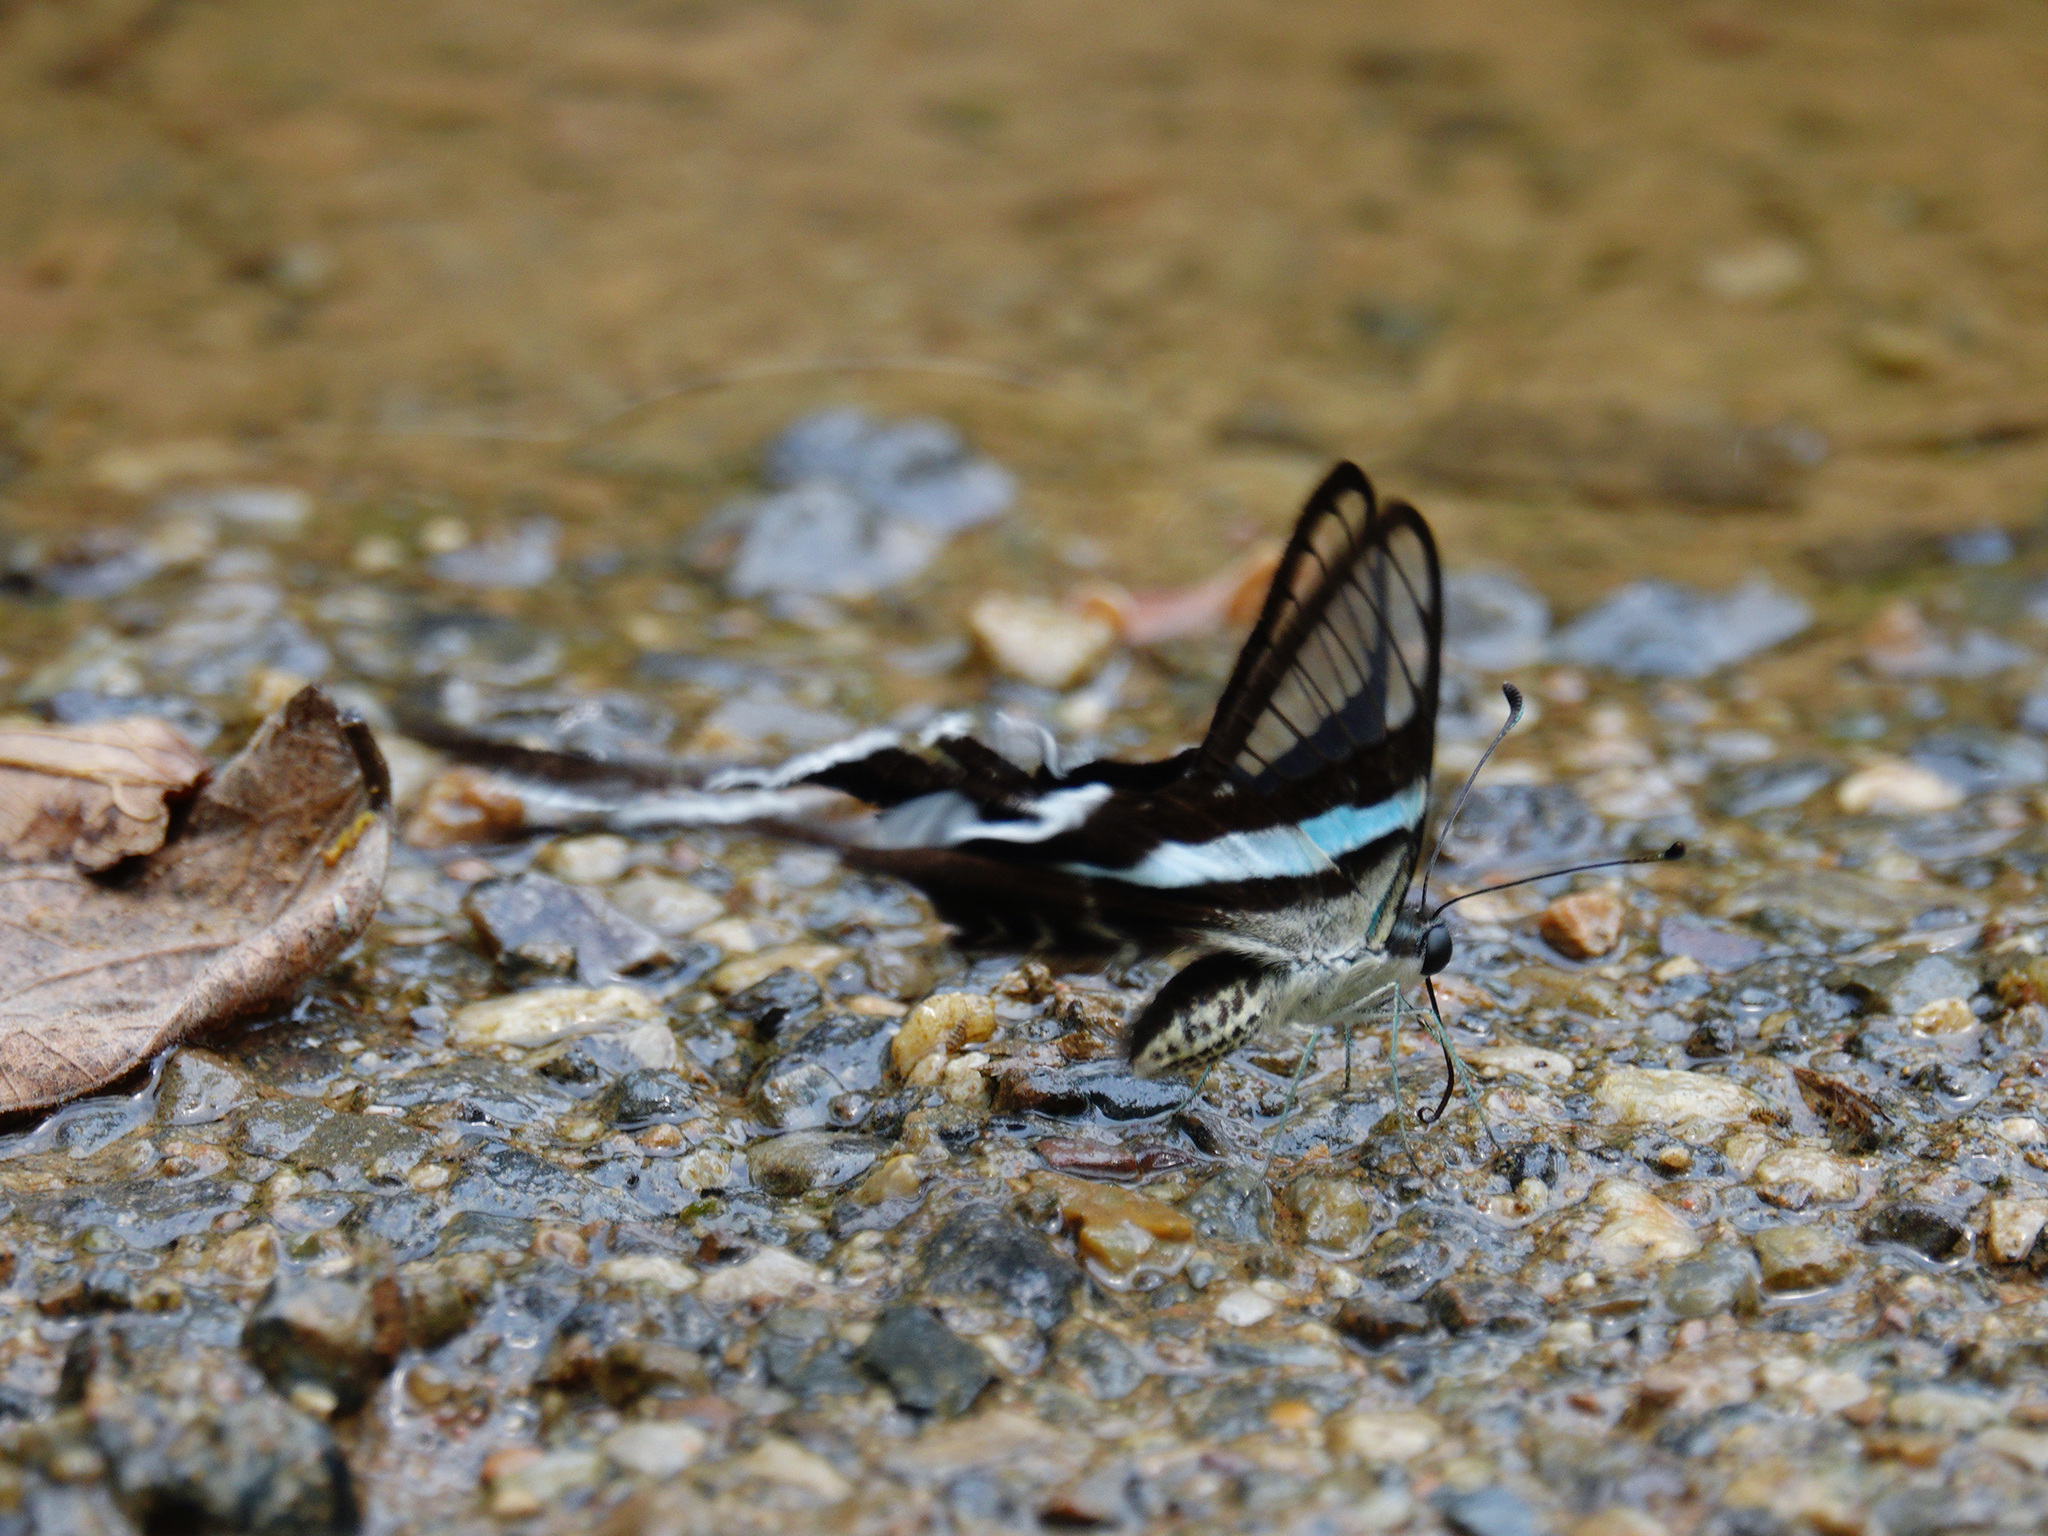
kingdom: Animalia
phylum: Arthropoda
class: Insecta
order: Lepidoptera
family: Papilionidae
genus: Lamproptera
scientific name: Lamproptera meges
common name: Green dragontail
